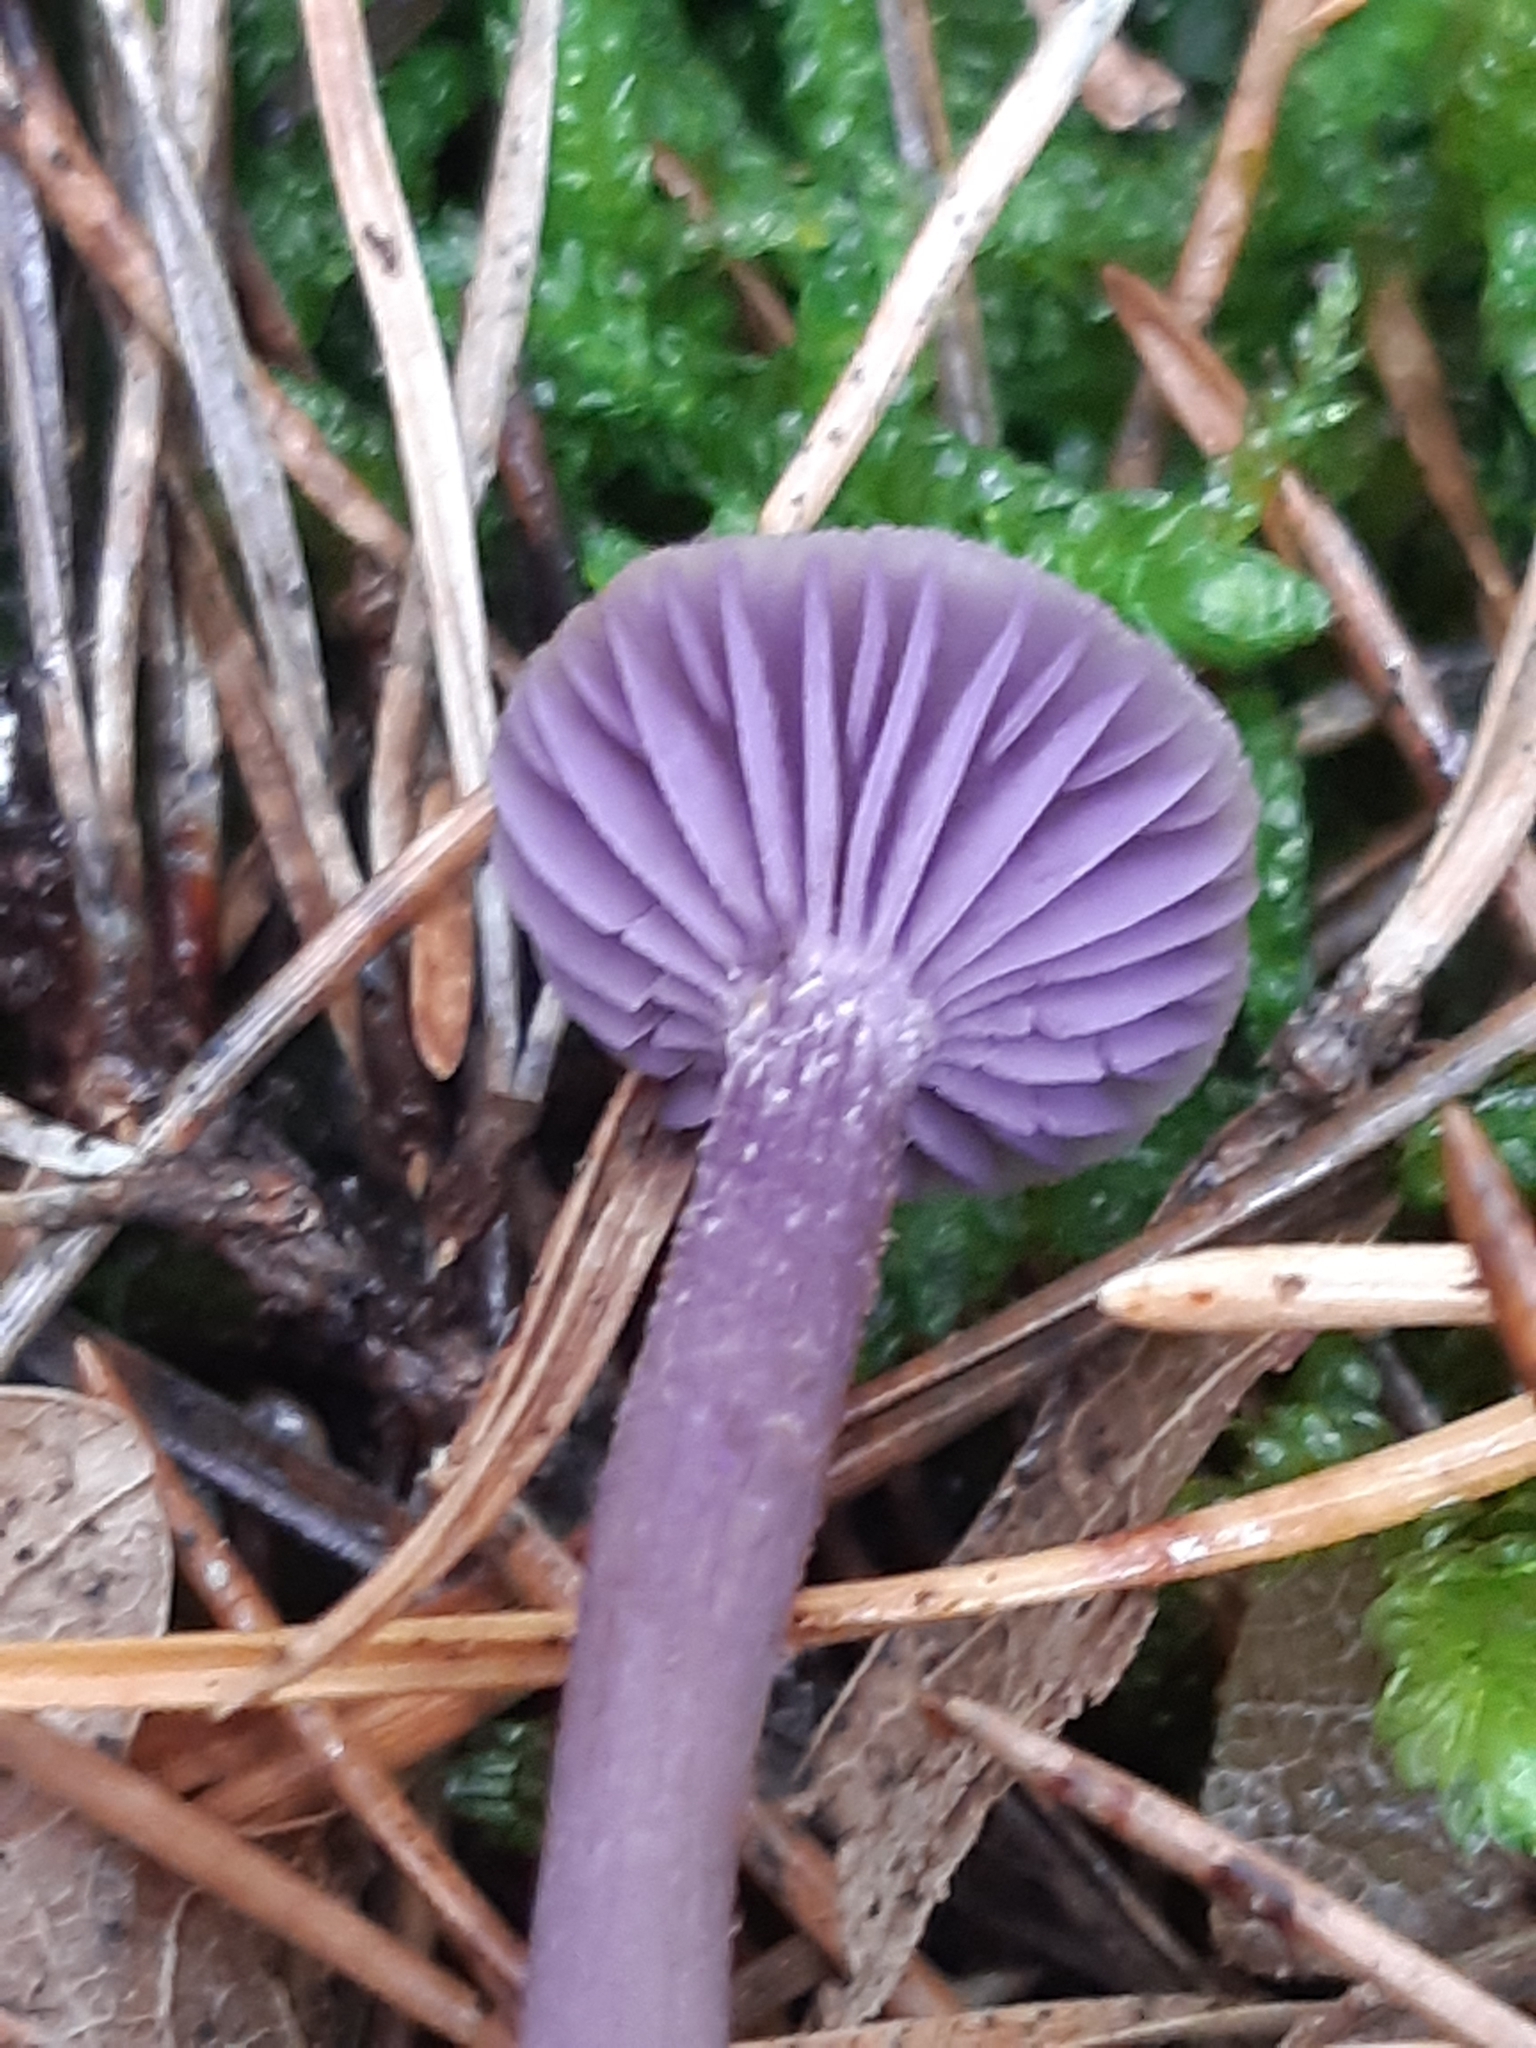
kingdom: Fungi
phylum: Basidiomycota
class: Agaricomycetes
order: Agaricales
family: Hydnangiaceae
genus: Laccaria
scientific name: Laccaria amethystina
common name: Amethyst deceiver
